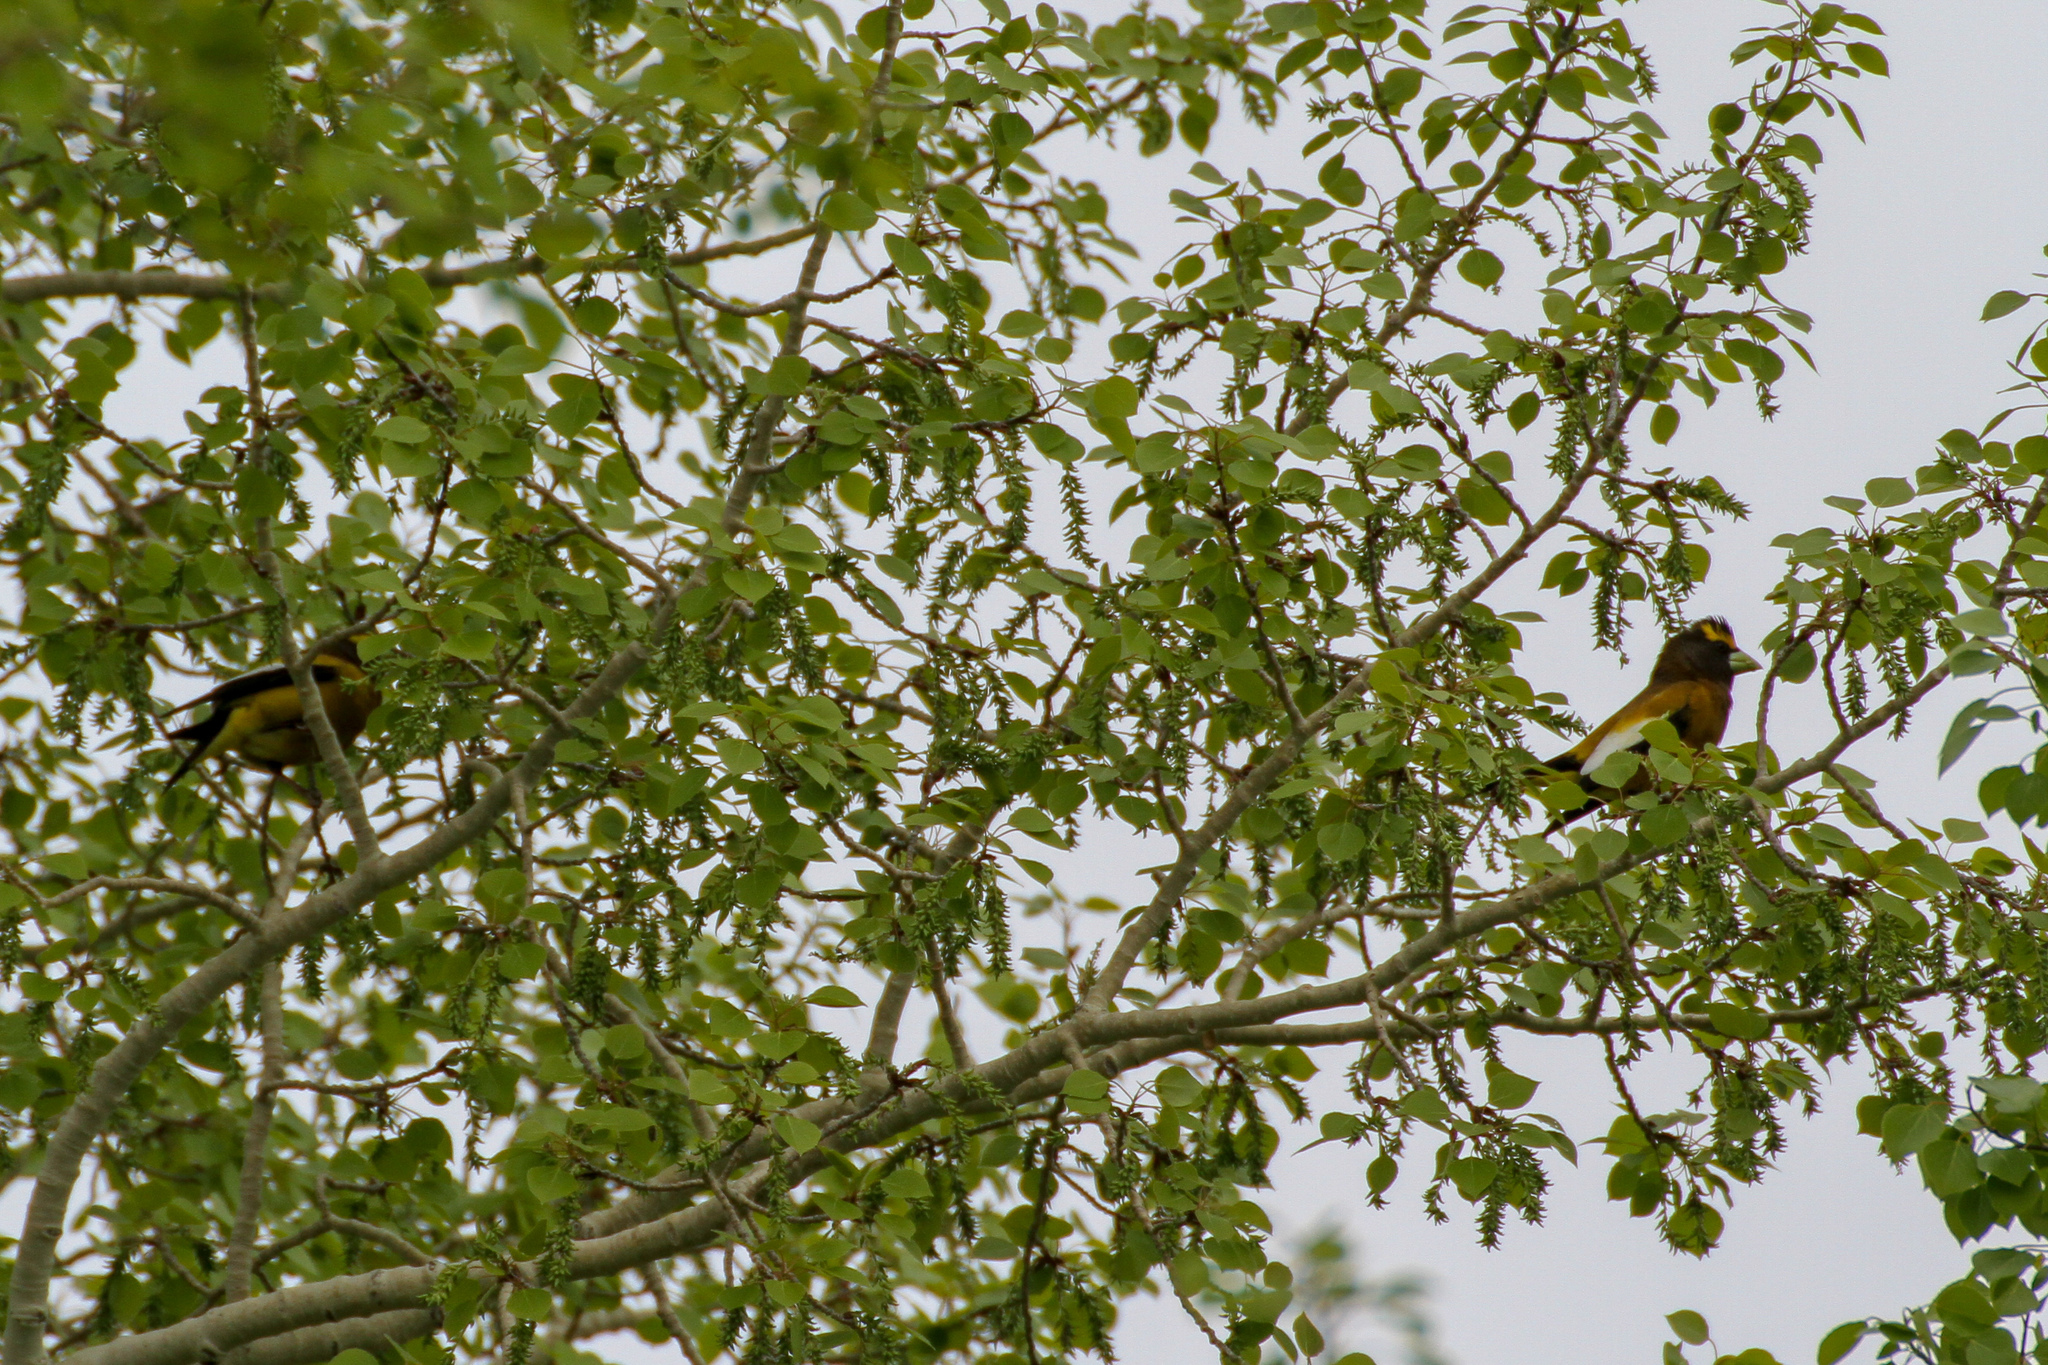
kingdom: Animalia
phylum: Chordata
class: Aves
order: Passeriformes
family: Fringillidae
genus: Hesperiphona
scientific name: Hesperiphona vespertina
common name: Evening grosbeak
